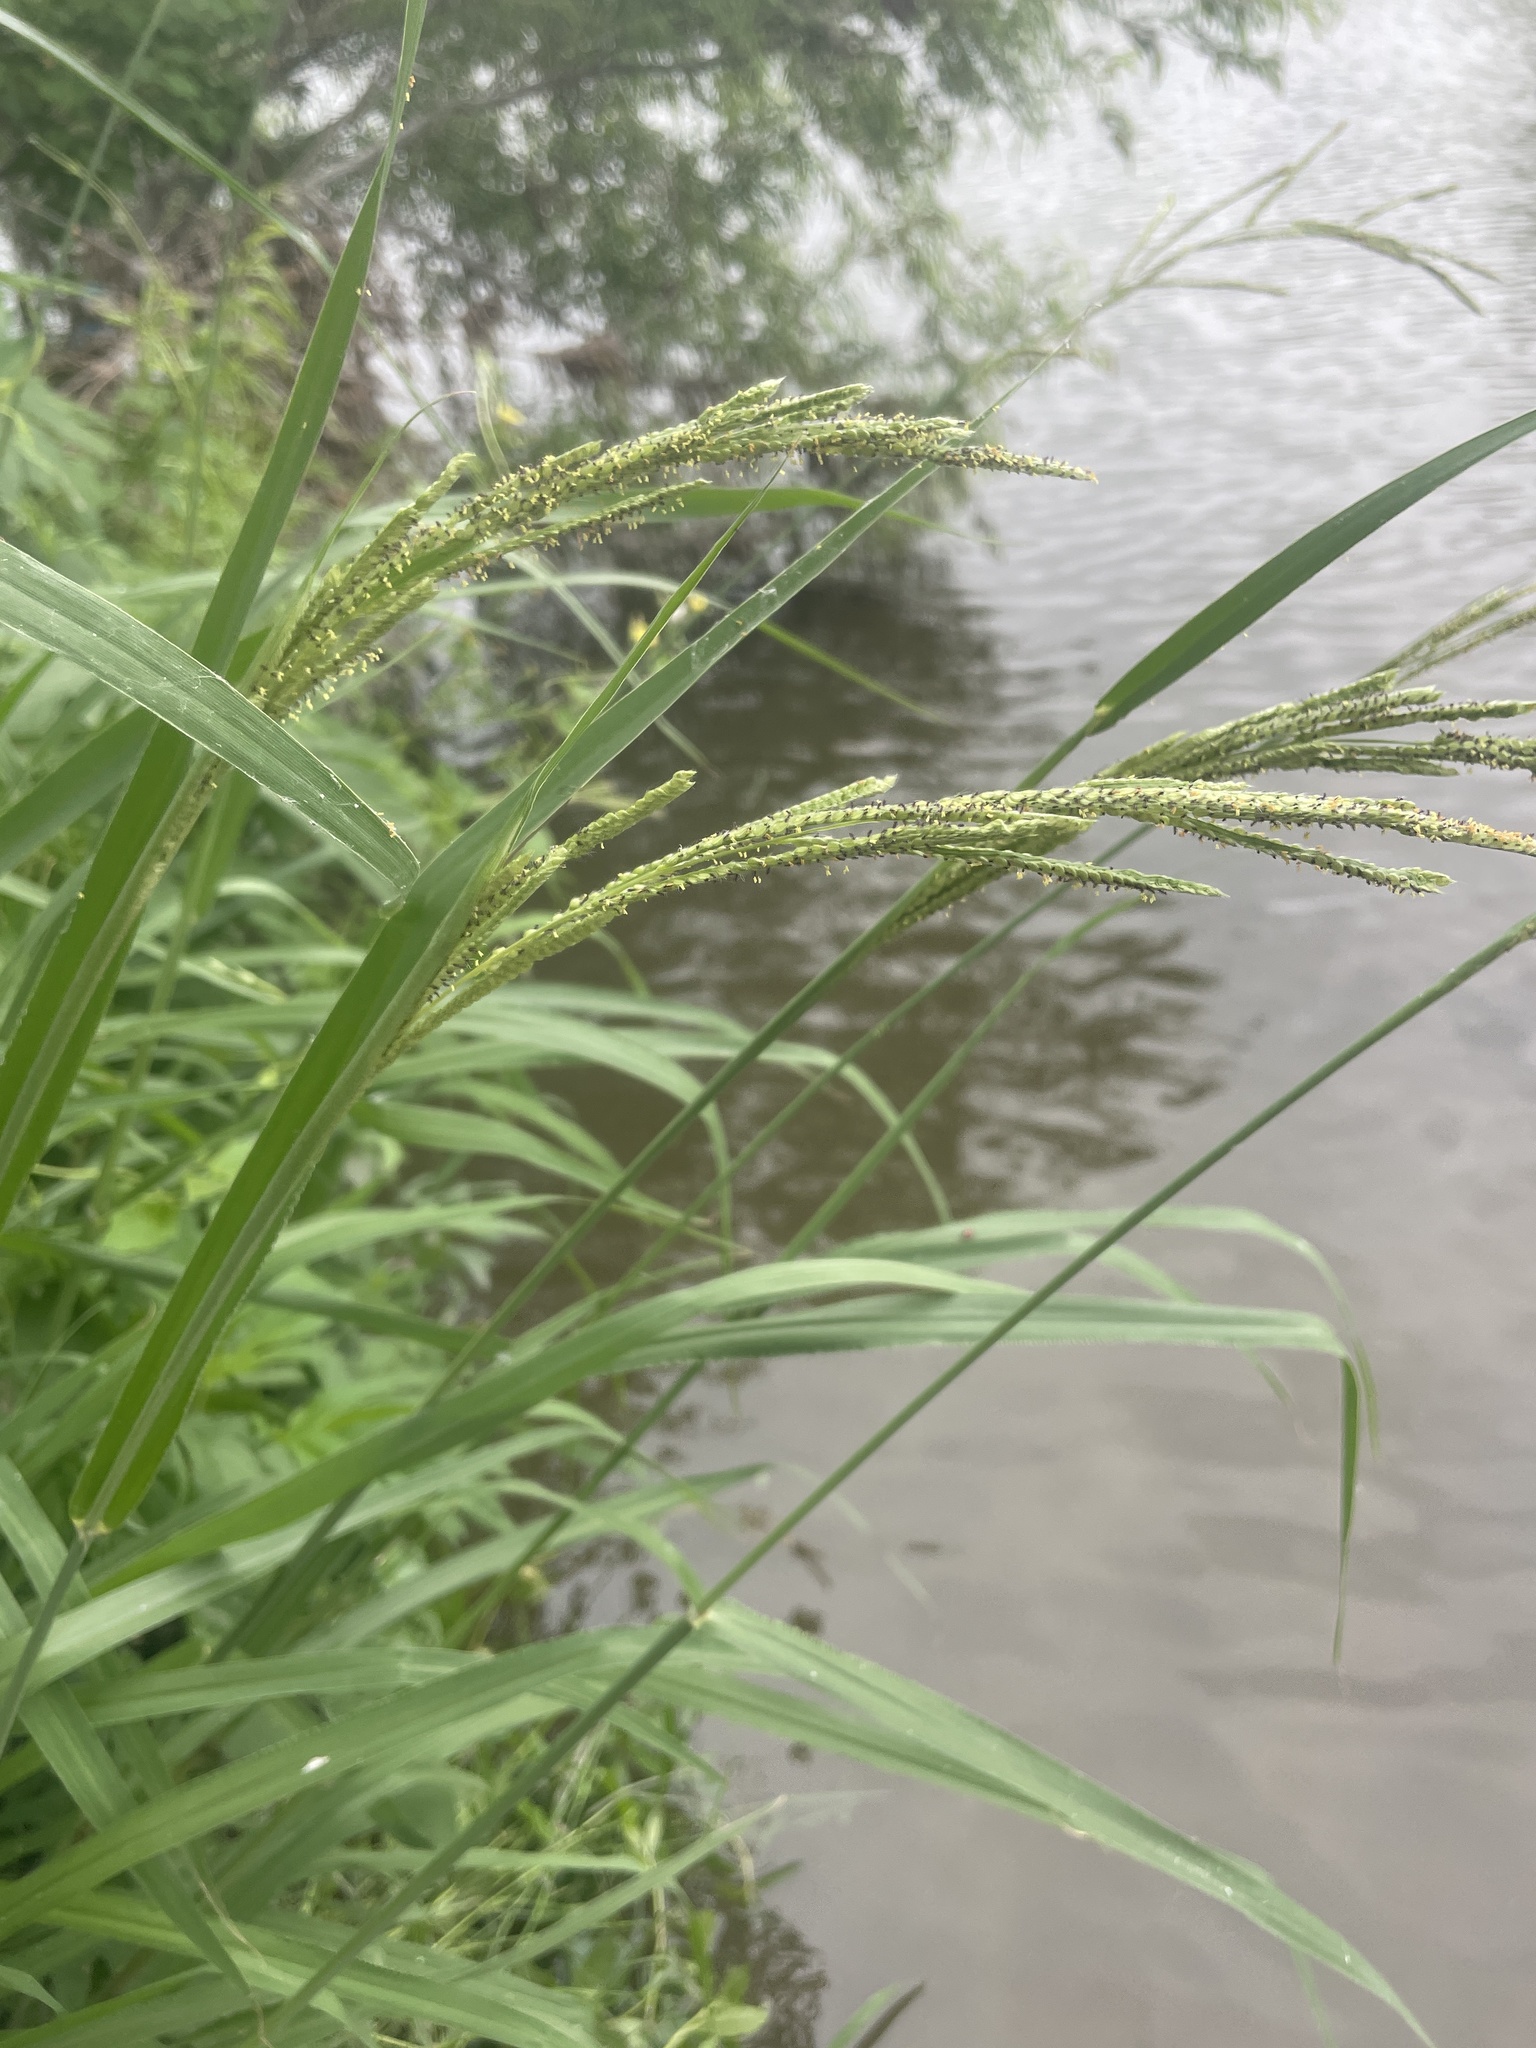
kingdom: Plantae
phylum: Tracheophyta
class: Liliopsida
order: Poales
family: Poaceae
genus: Paspalum
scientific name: Paspalum urvillei
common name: Vasey's grass
